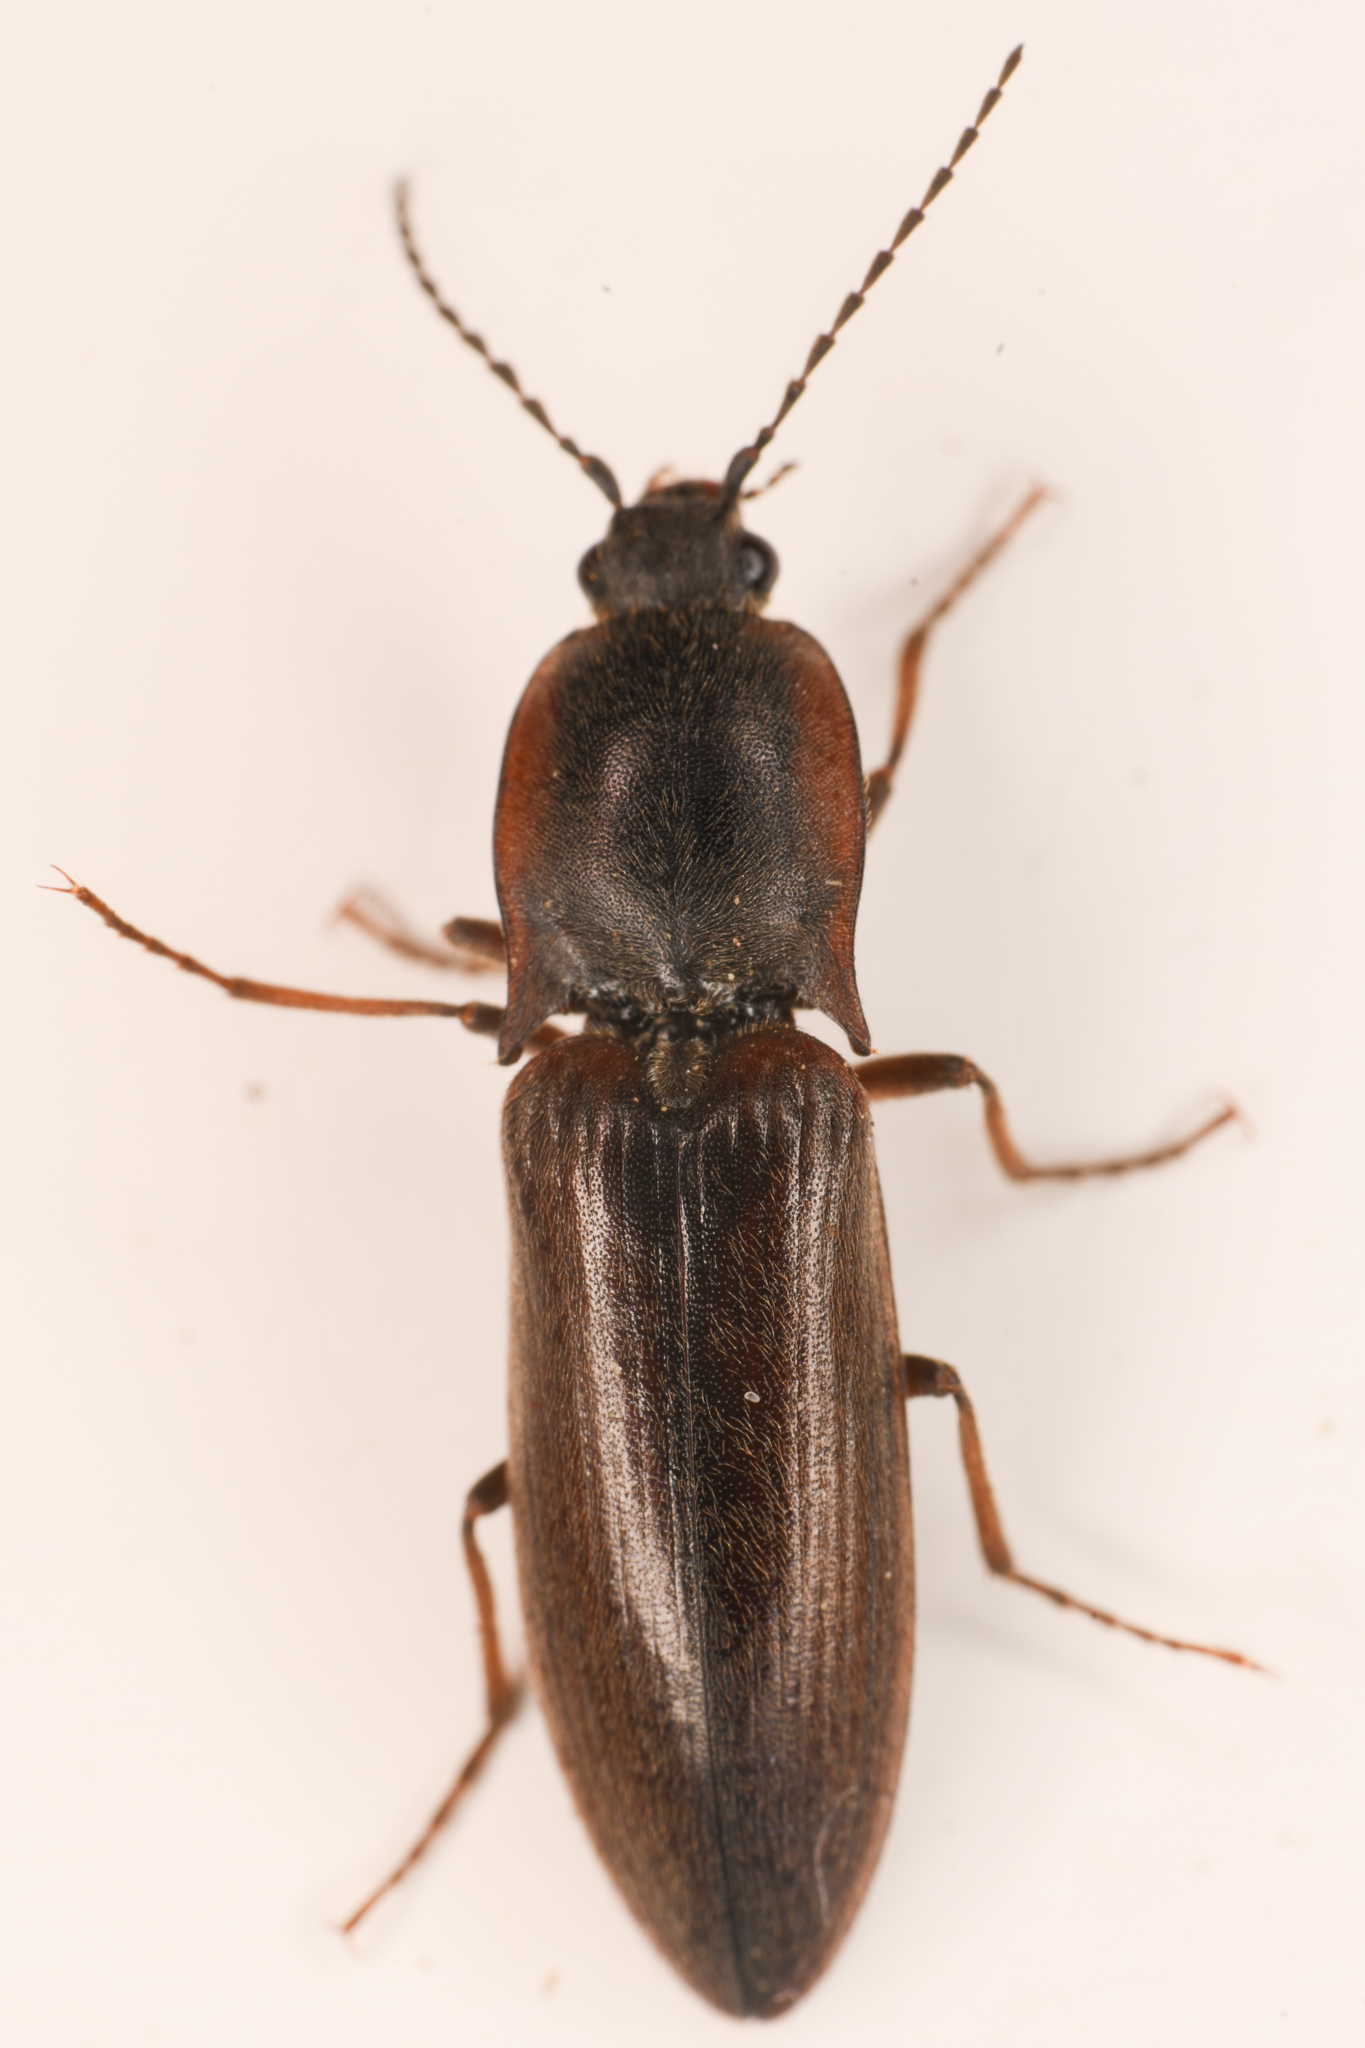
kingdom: Animalia
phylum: Arthropoda
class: Insecta
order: Coleoptera
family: Elateridae
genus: Acteniceromorphus
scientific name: Acteniceromorphus volitans
